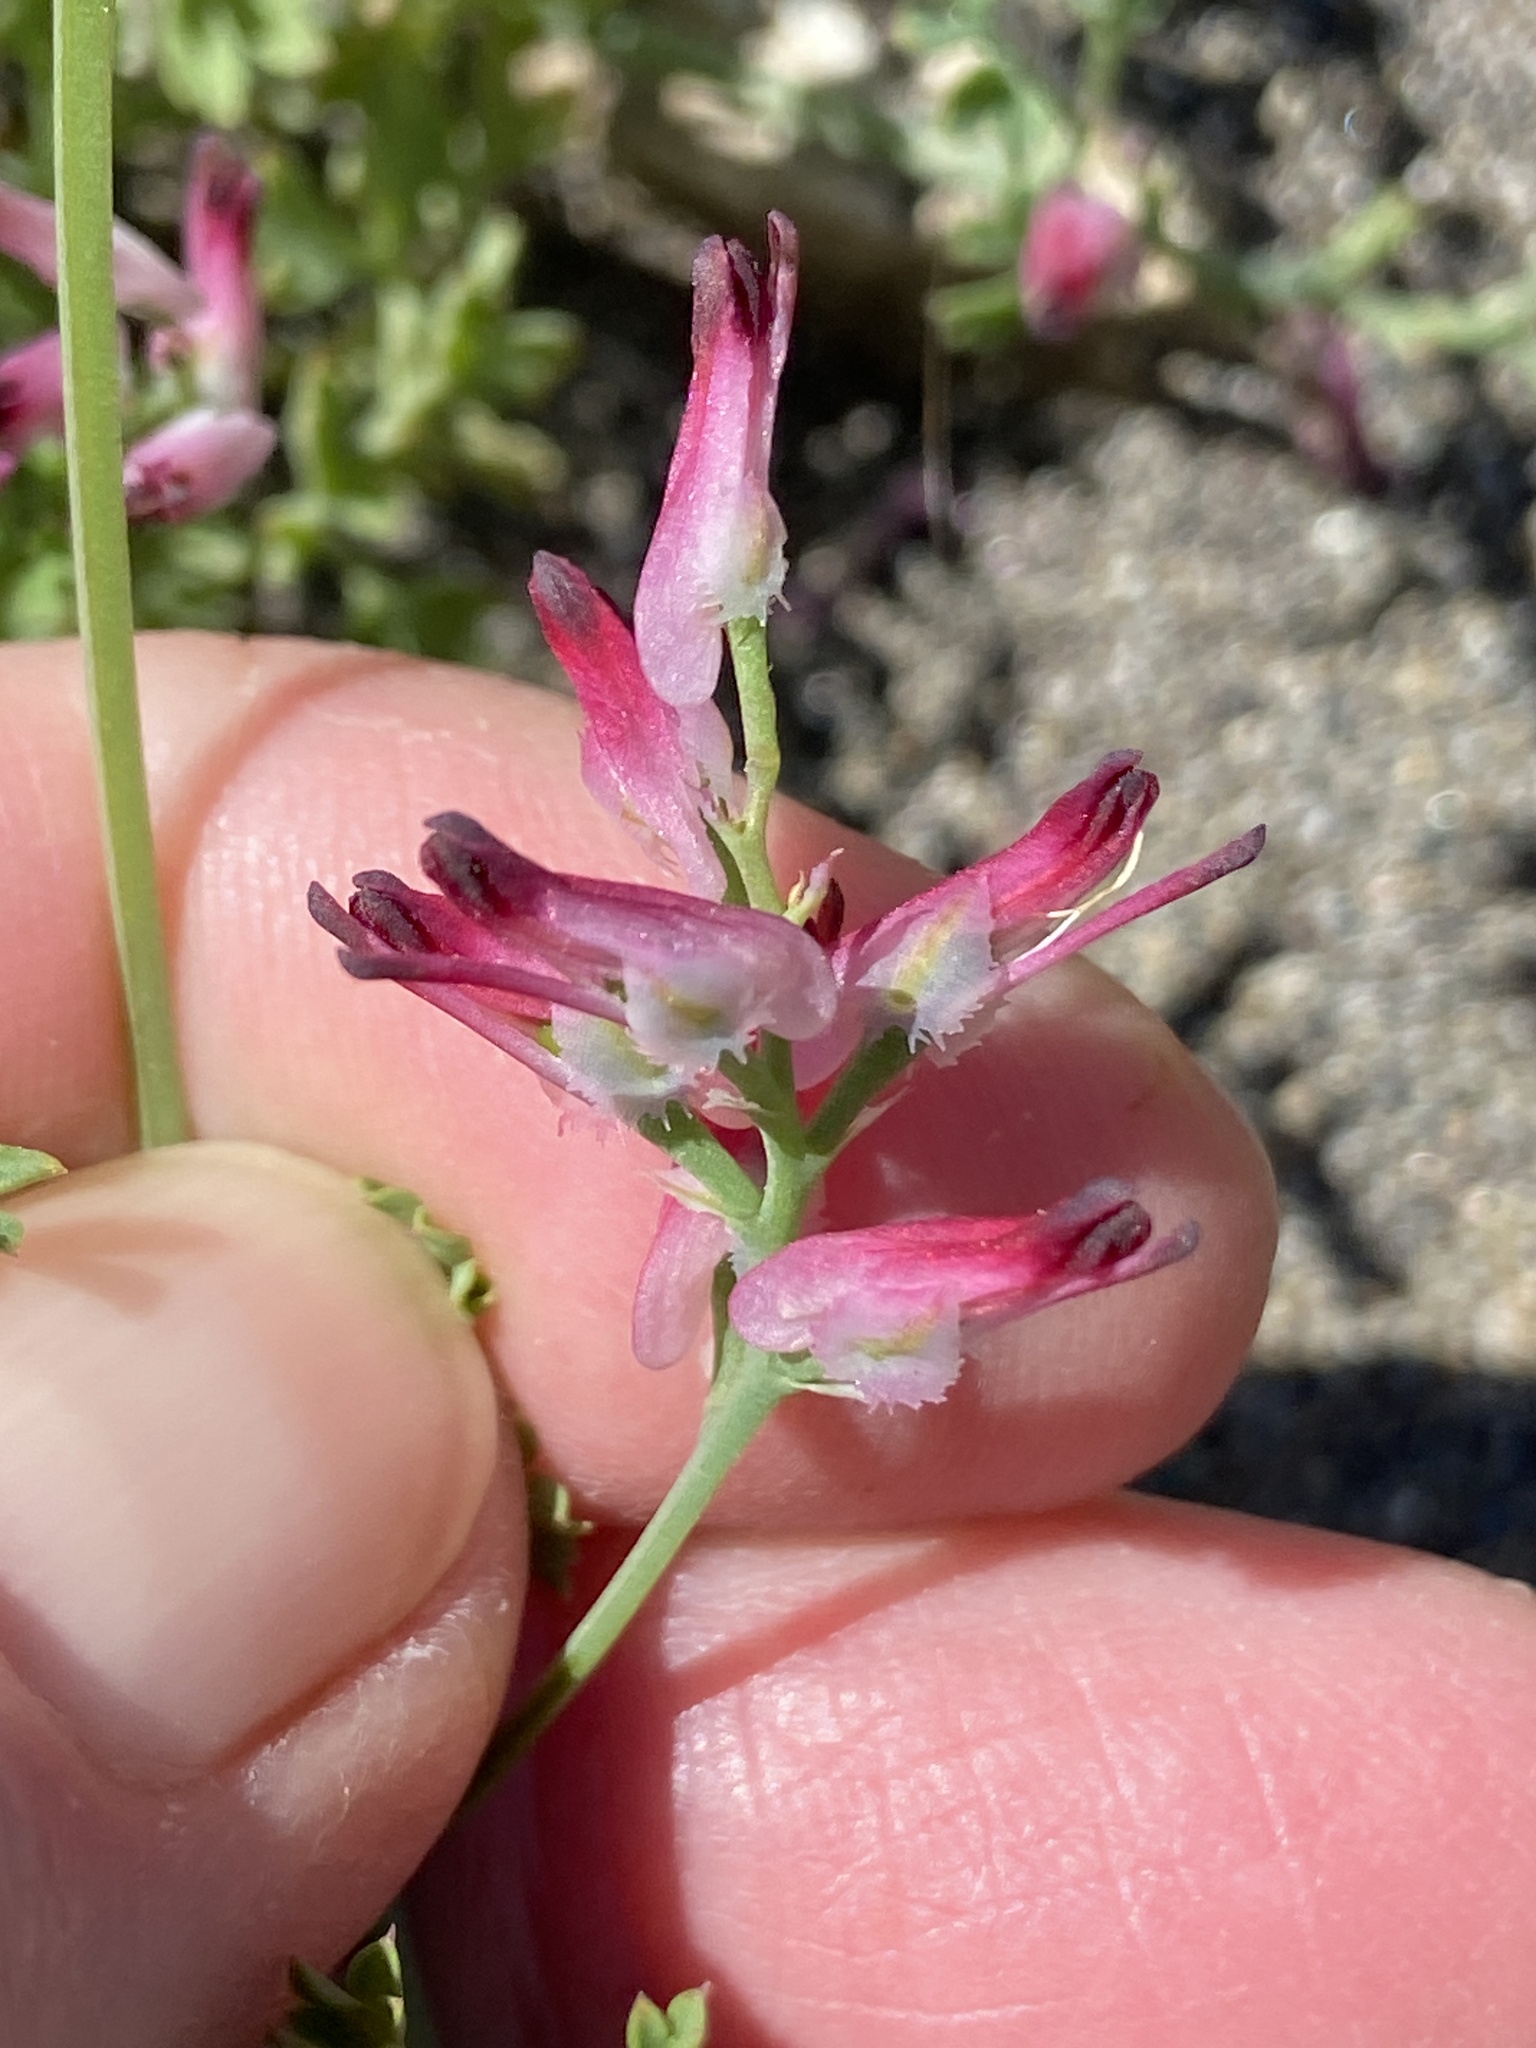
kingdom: Plantae
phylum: Tracheophyta
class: Magnoliopsida
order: Ranunculales
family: Papaveraceae
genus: Fumaria
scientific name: Fumaria muralis
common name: Common ramping-fumitory
